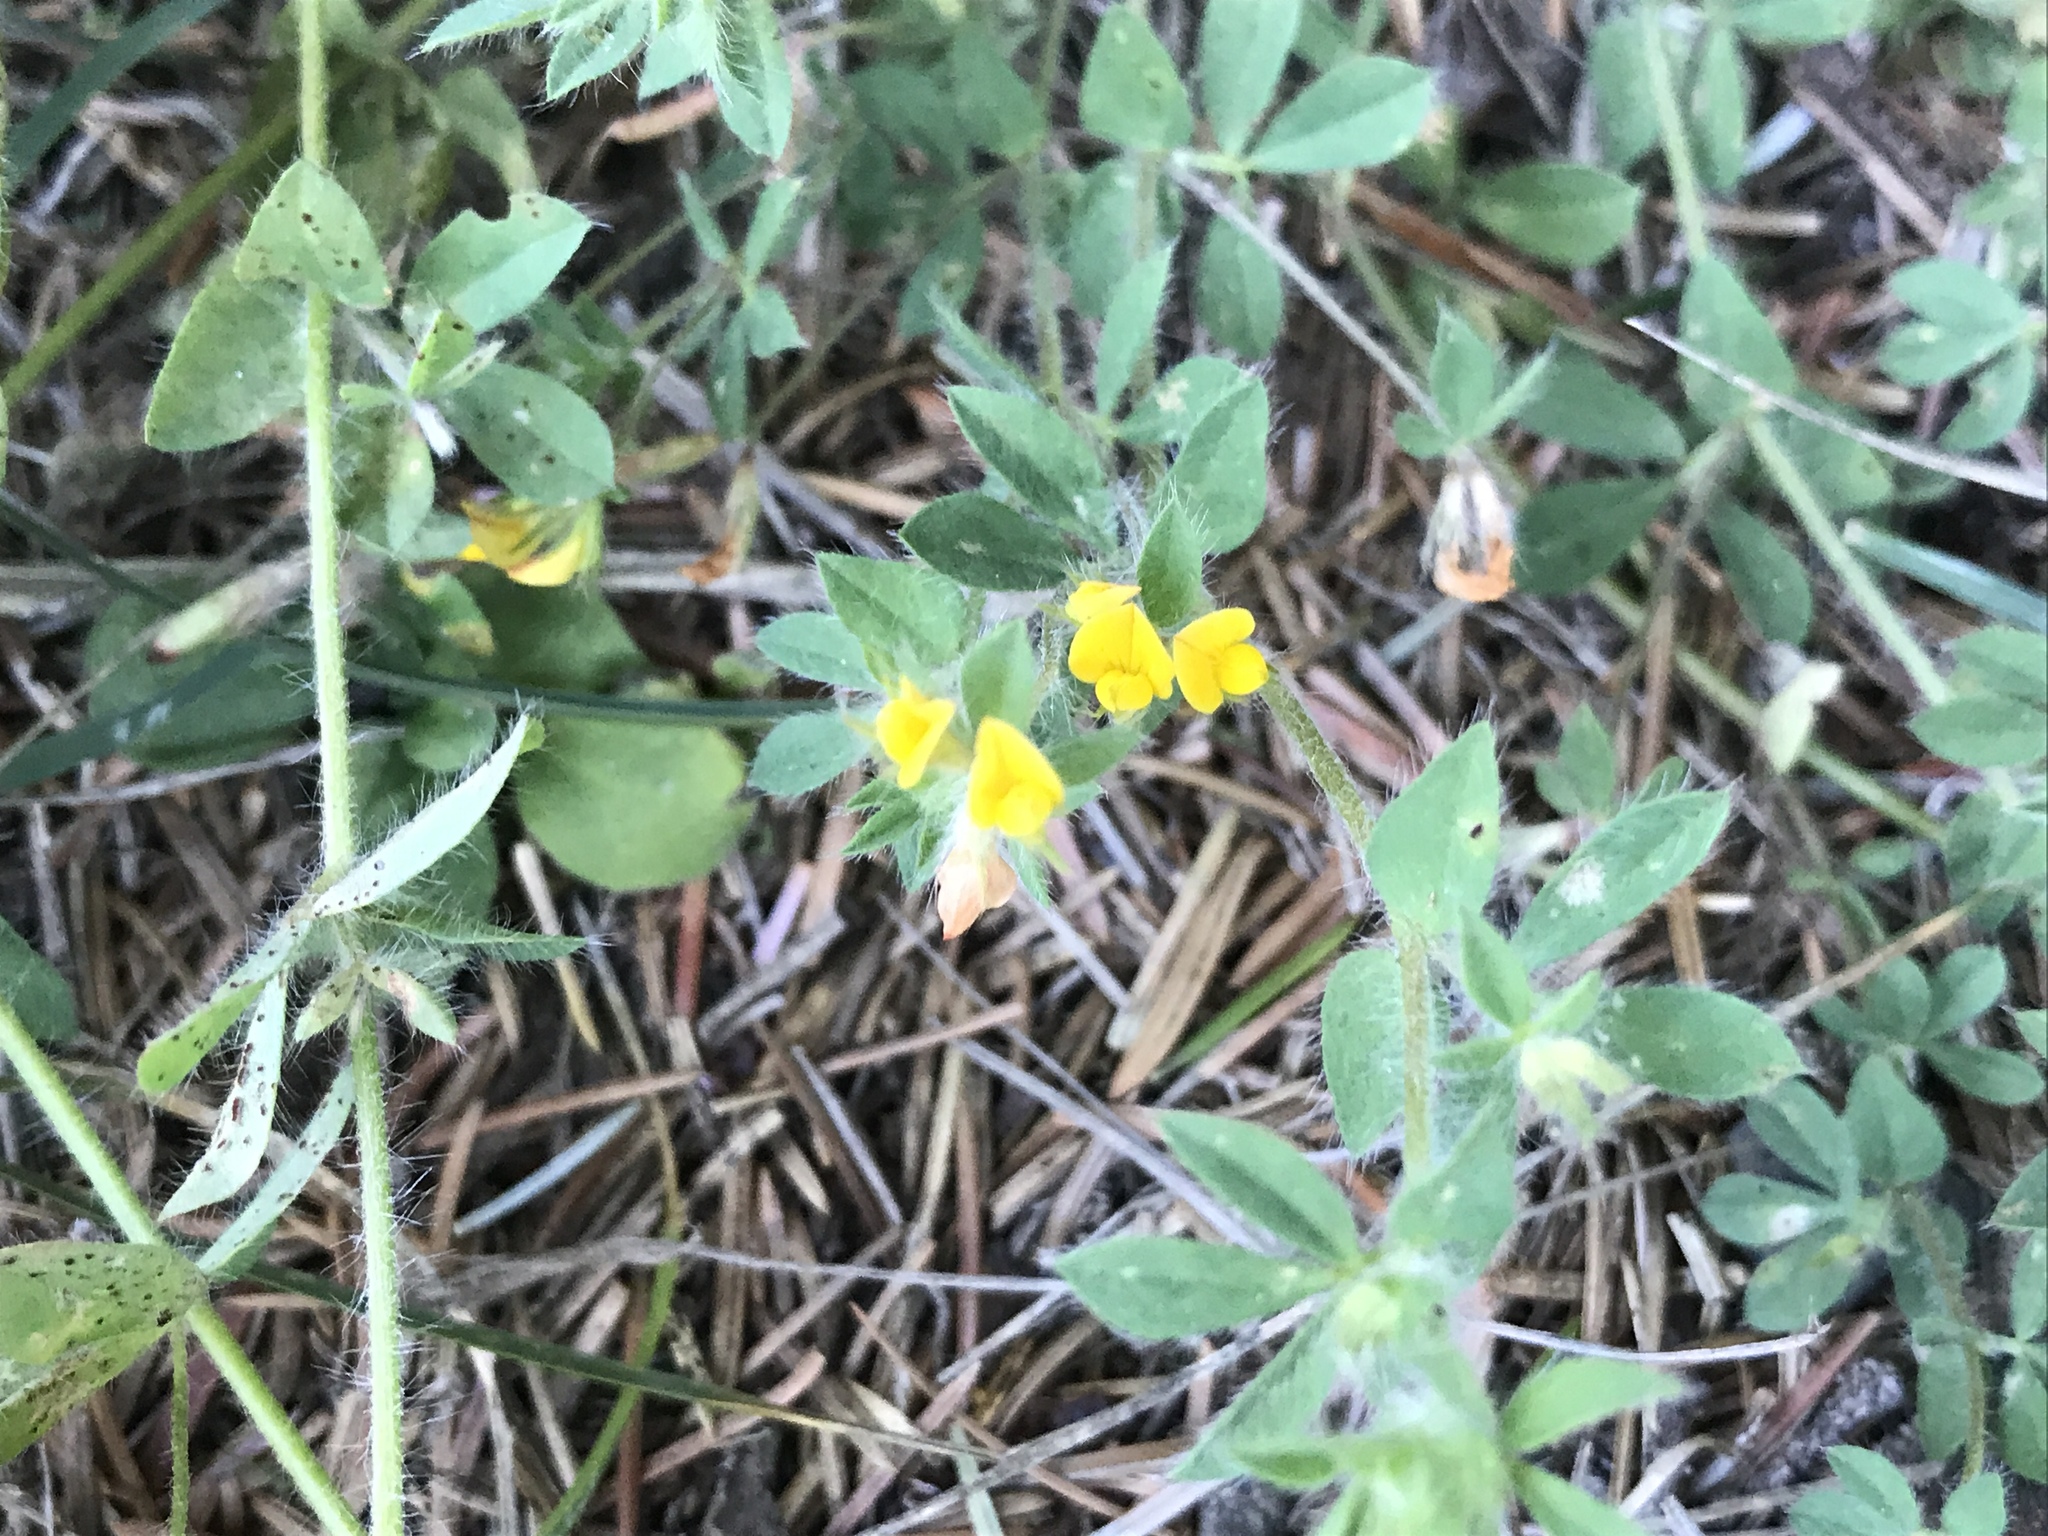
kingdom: Plantae
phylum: Tracheophyta
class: Magnoliopsida
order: Fabales
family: Fabaceae
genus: Lotus
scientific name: Lotus subbiflorus
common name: Hairy bird's-foot trefoil
